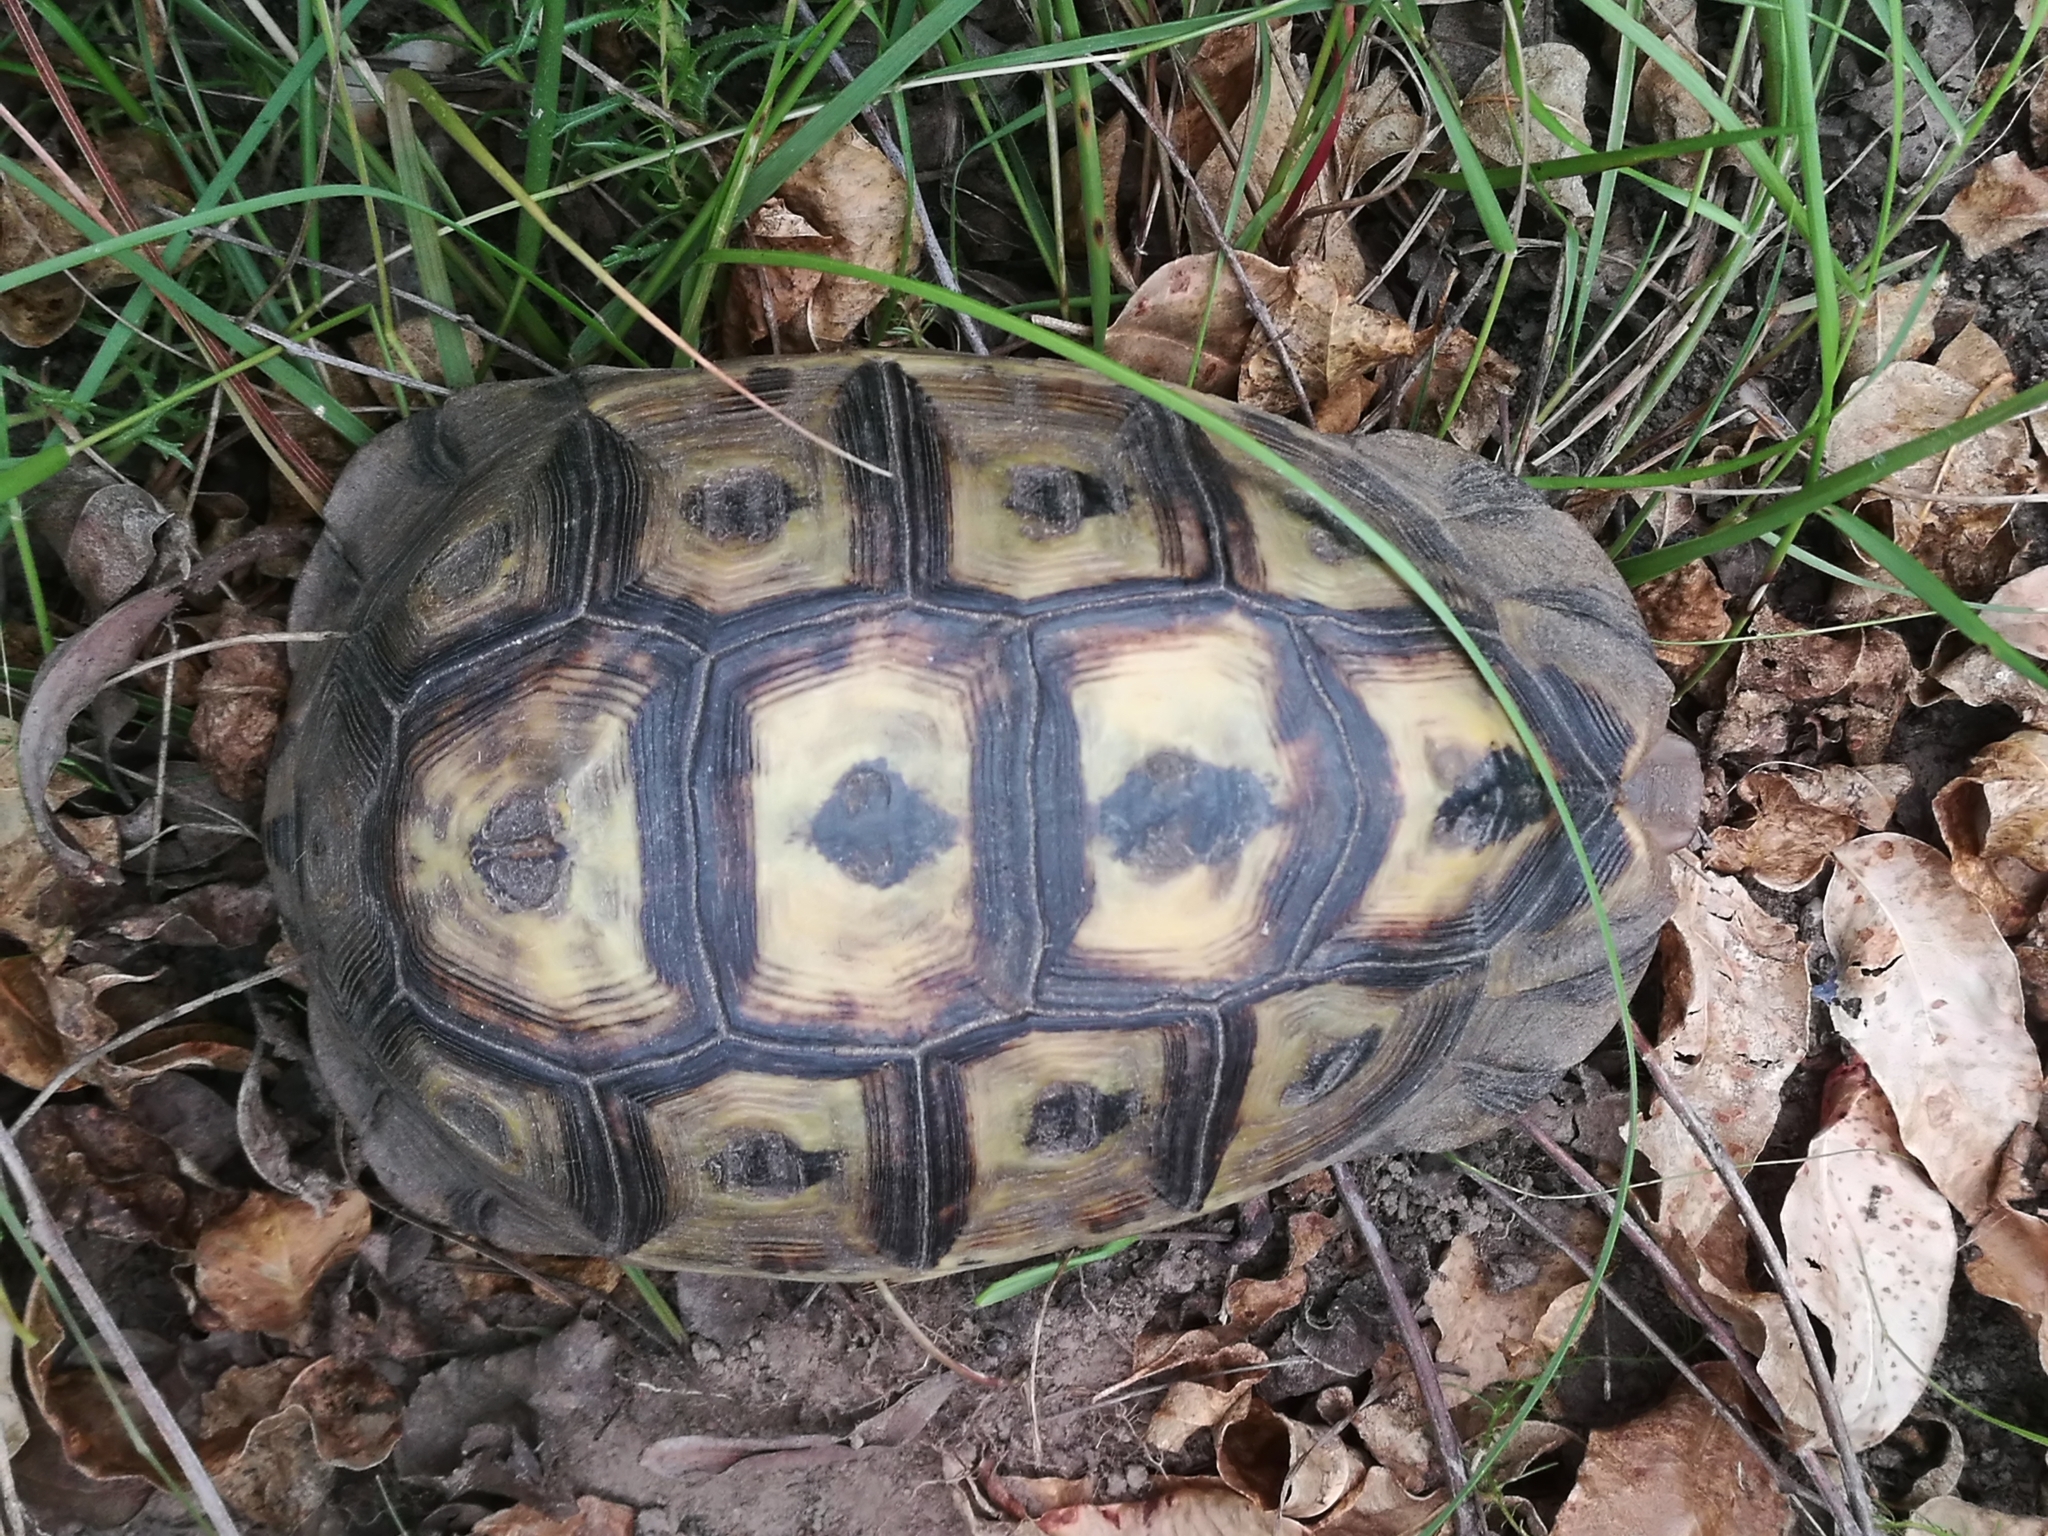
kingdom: Animalia
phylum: Chordata
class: Testudines
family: Testudinidae
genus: Chersina
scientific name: Chersina angulata
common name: South african bowsprit tortoise
